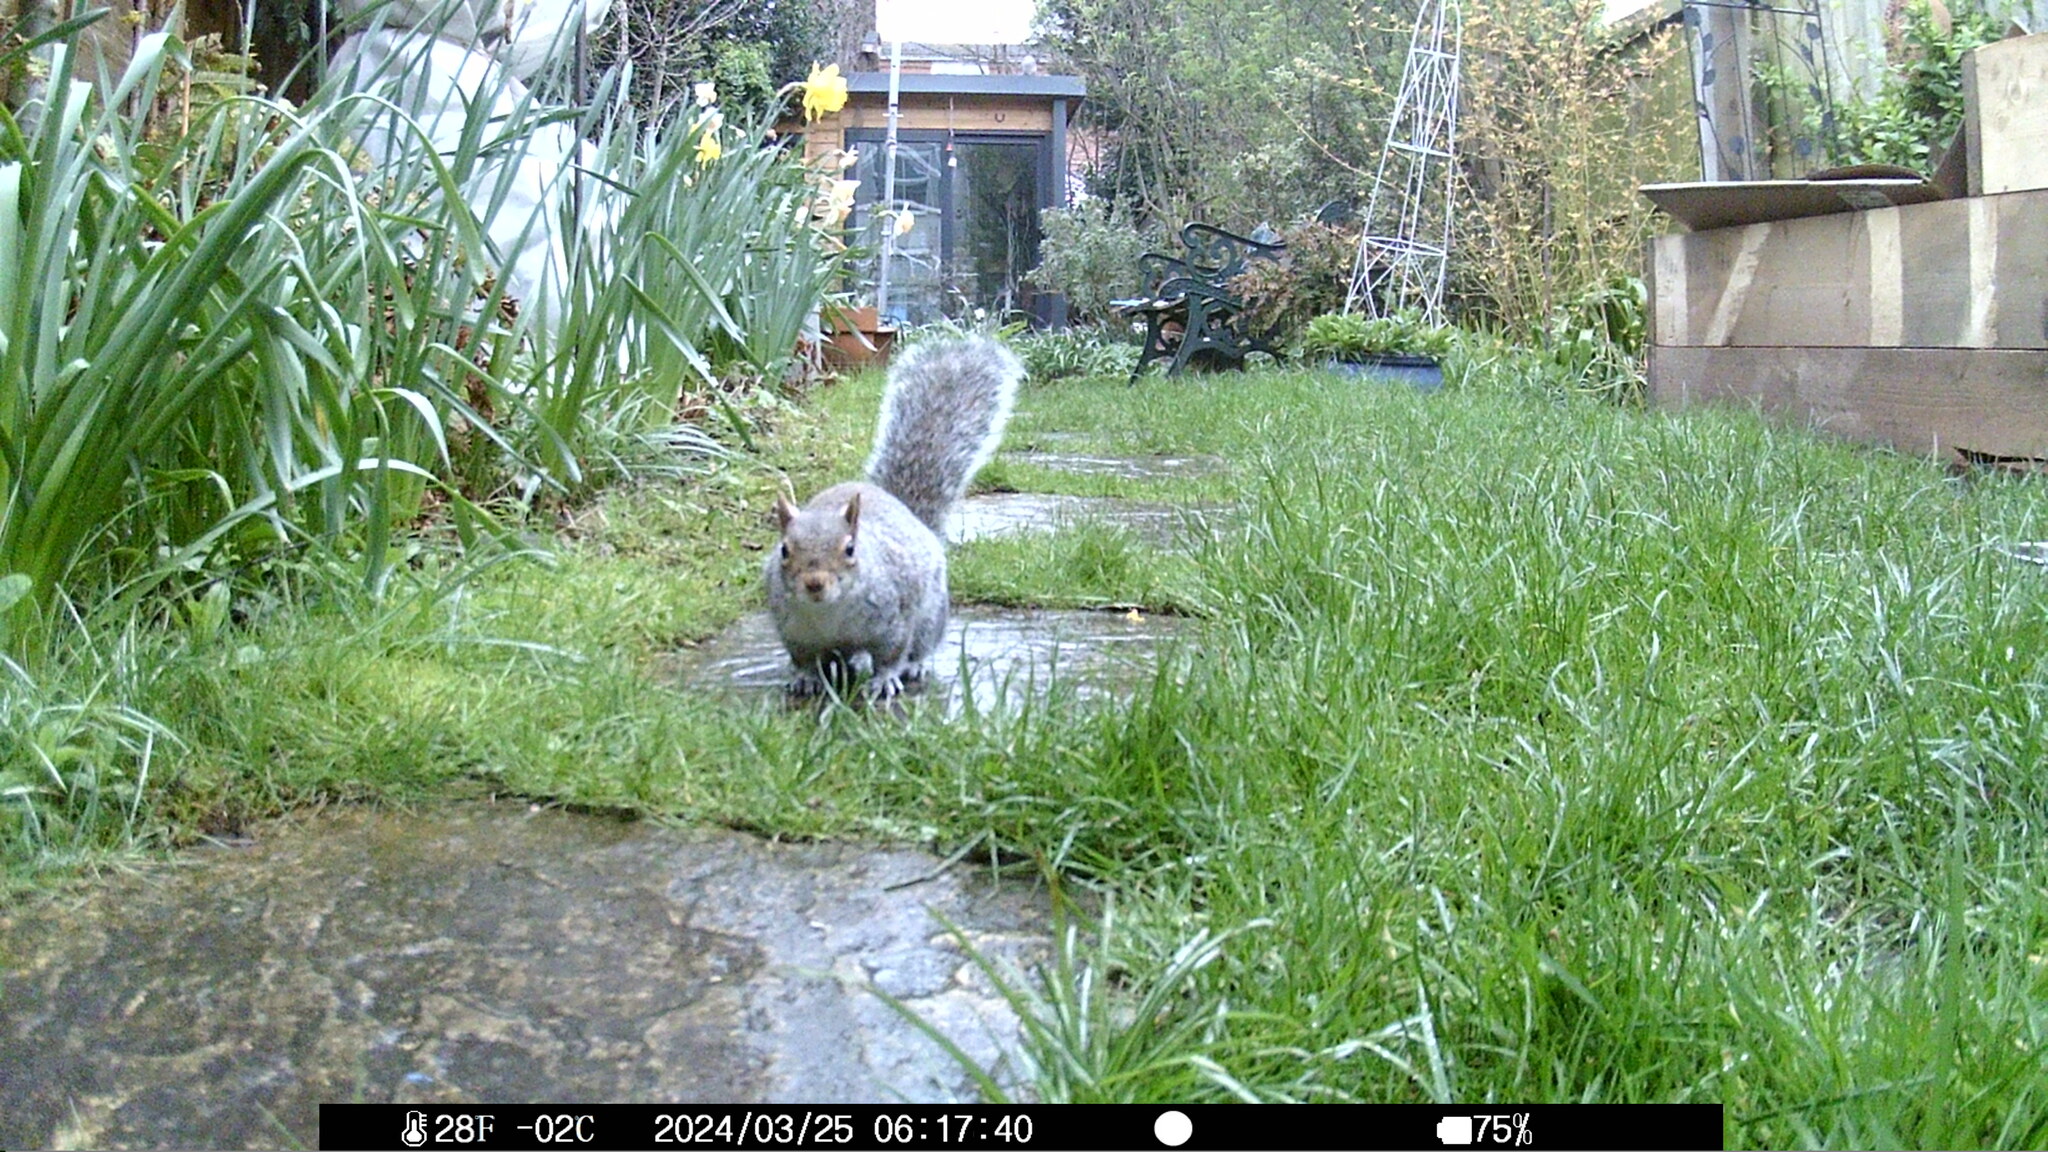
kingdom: Animalia
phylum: Chordata
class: Mammalia
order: Rodentia
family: Sciuridae
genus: Sciurus
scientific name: Sciurus carolinensis
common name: Eastern gray squirrel
